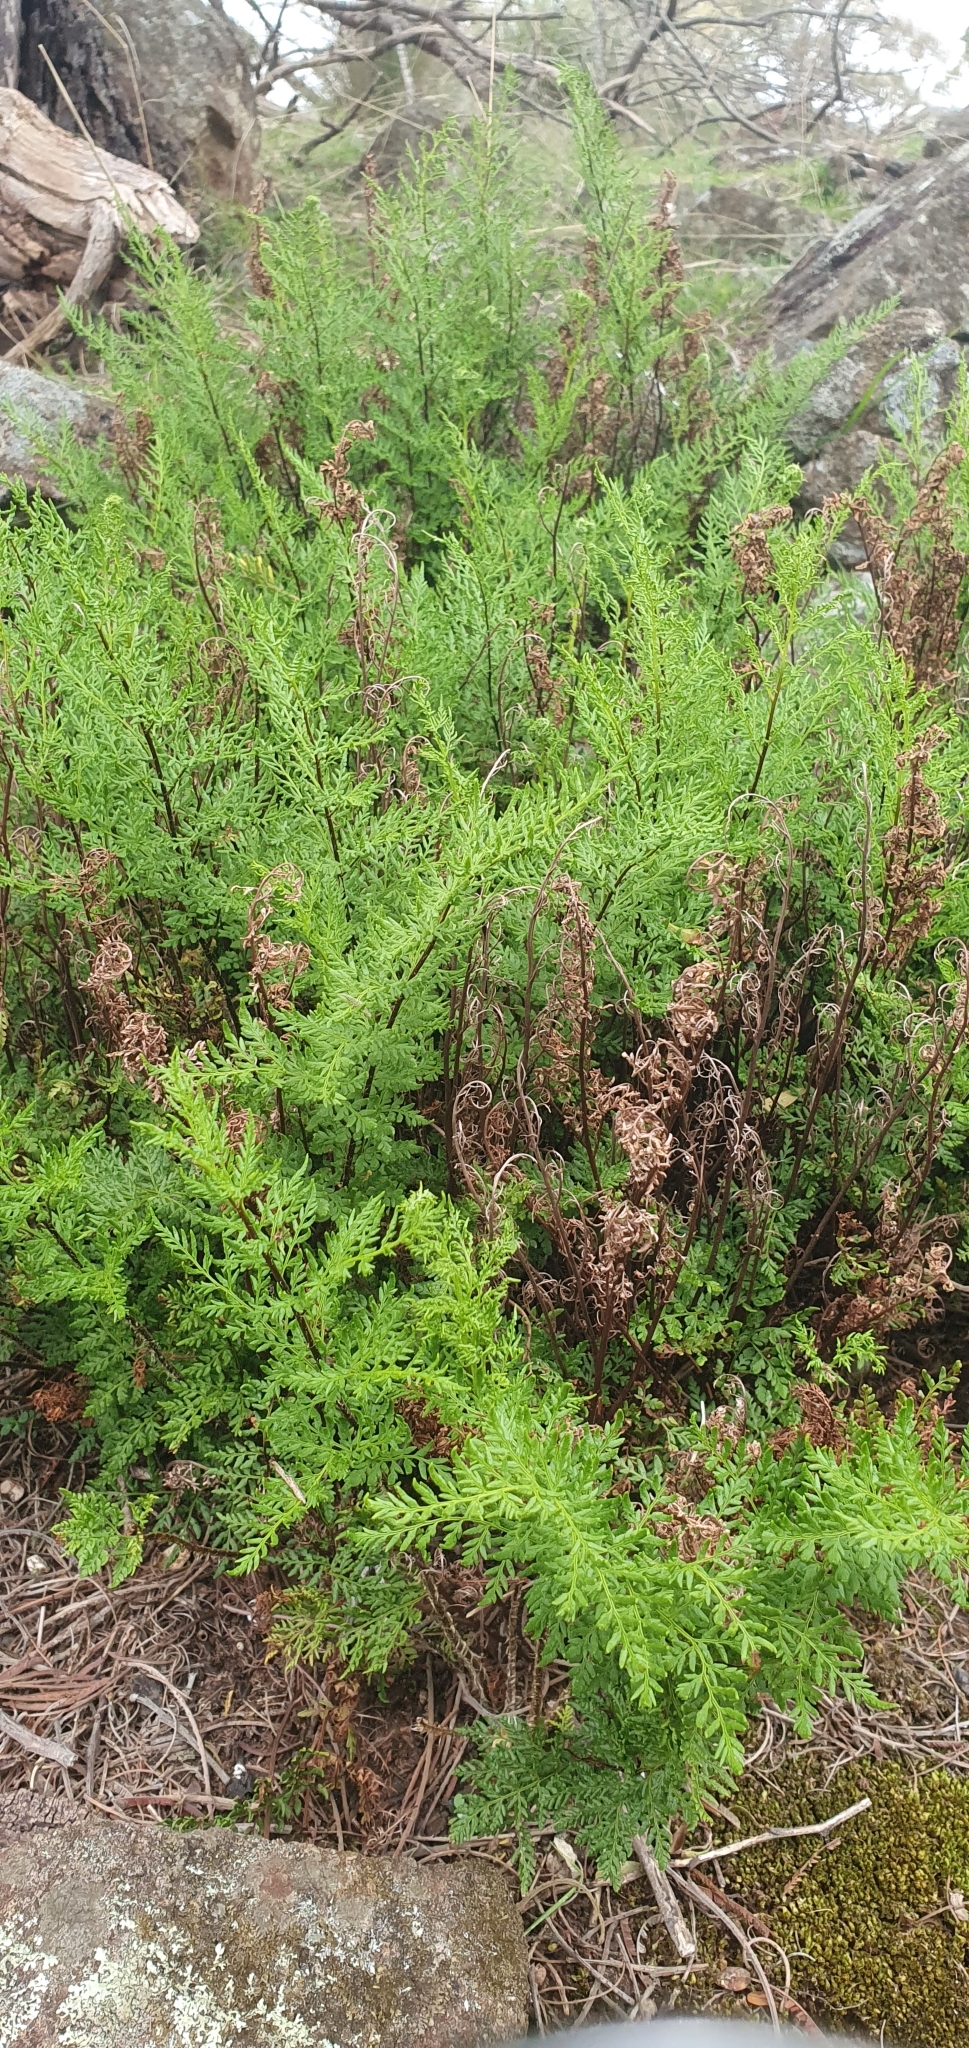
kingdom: Plantae
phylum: Tracheophyta
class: Polypodiopsida
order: Polypodiales
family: Pteridaceae
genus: Cheilanthes
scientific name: Cheilanthes austrotenuifolia
